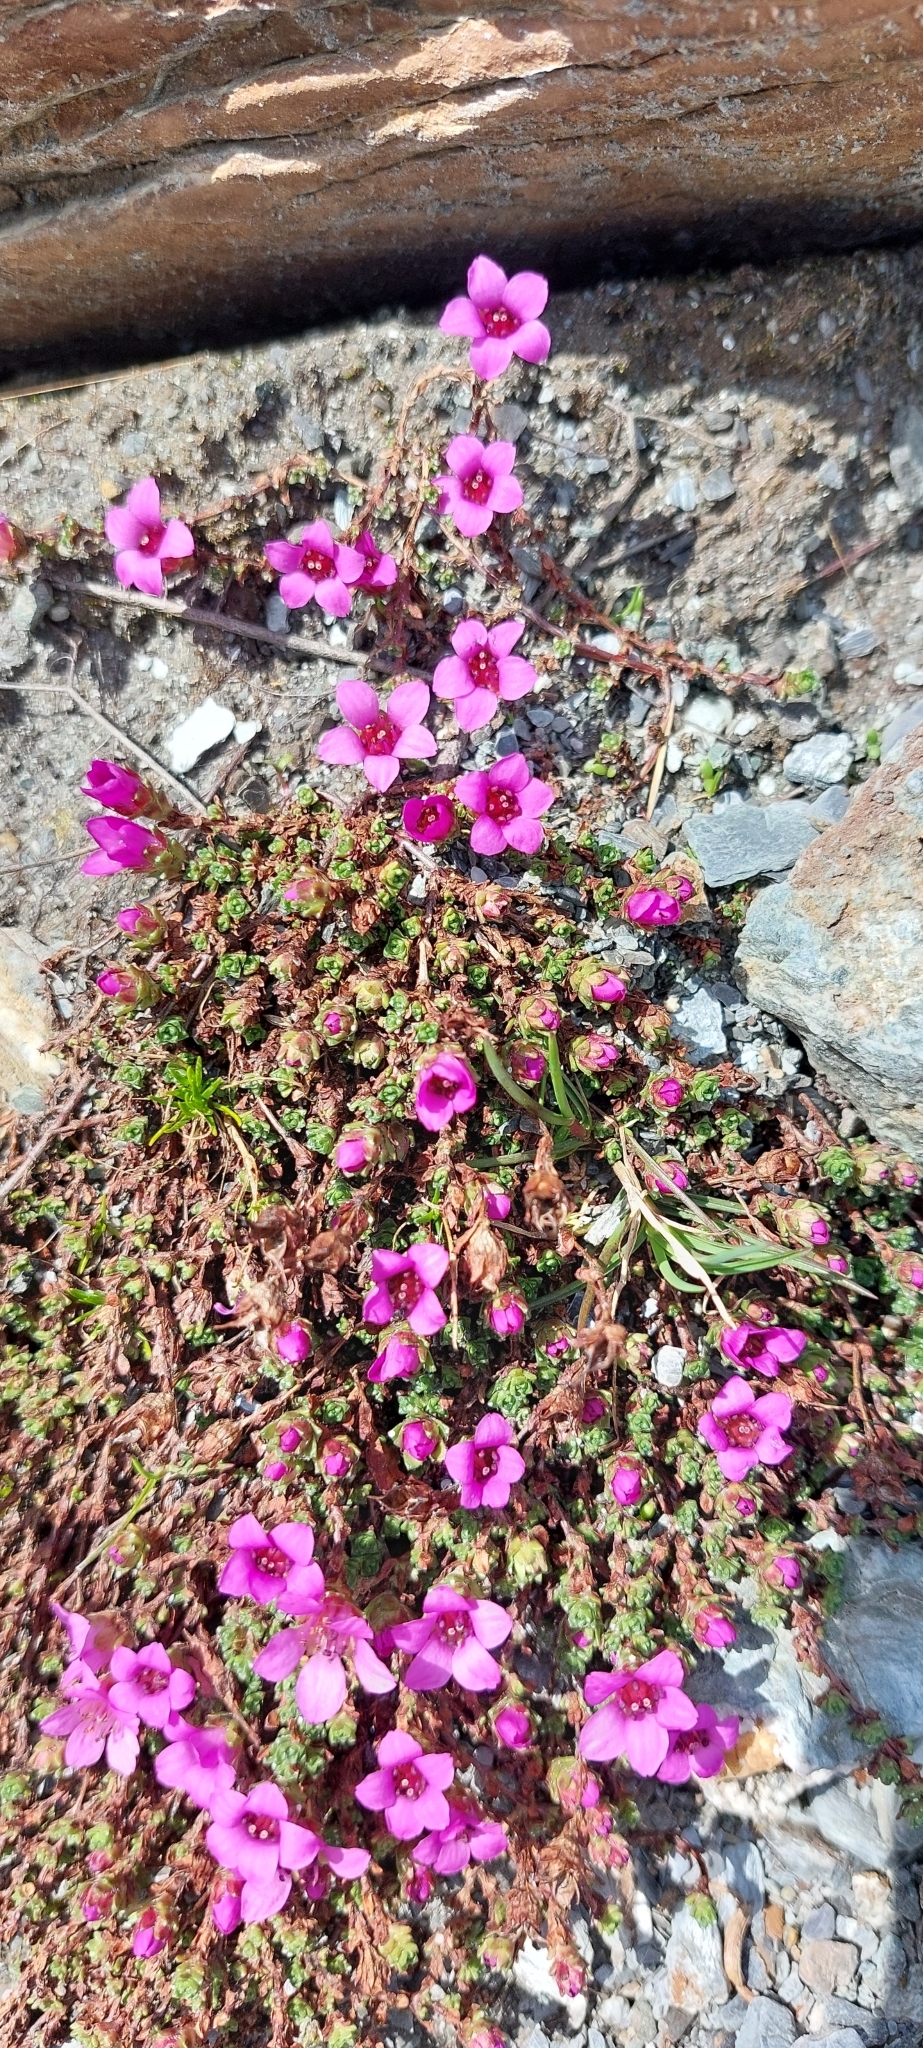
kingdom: Plantae
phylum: Tracheophyta
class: Magnoliopsida
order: Saxifragales
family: Saxifragaceae
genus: Saxifraga
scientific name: Saxifraga oppositifolia
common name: Purple saxifrage
